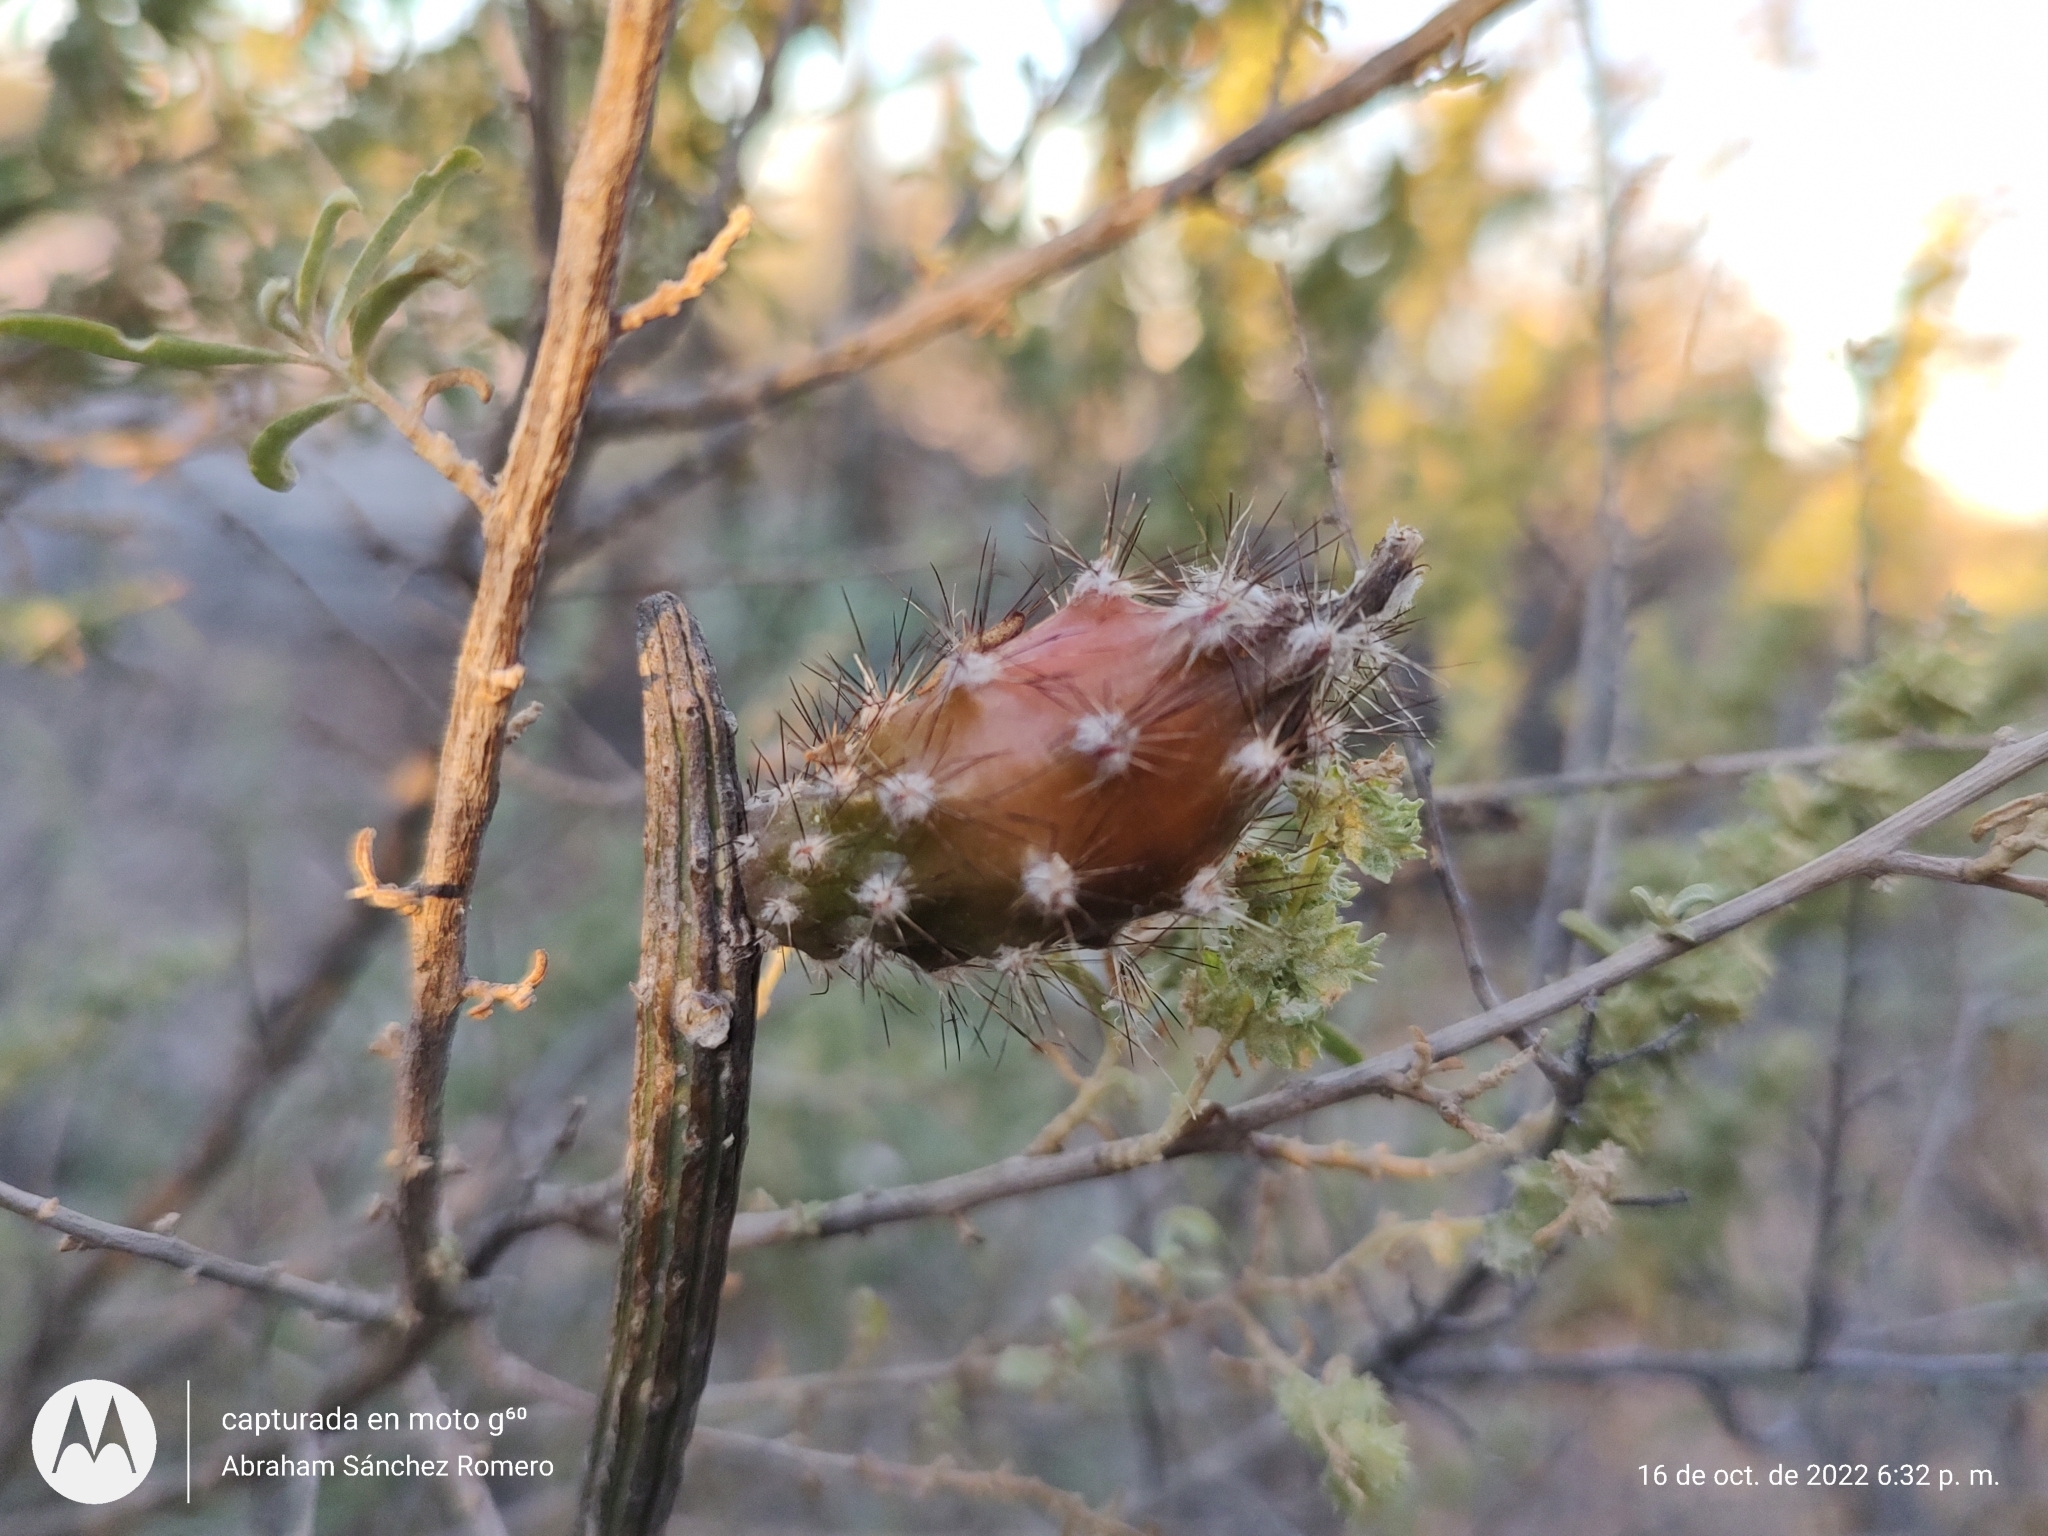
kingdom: Plantae
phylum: Tracheophyta
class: Magnoliopsida
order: Caryophyllales
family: Cactaceae
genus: Peniocereus
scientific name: Peniocereus striatus
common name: Gearstem cactus
